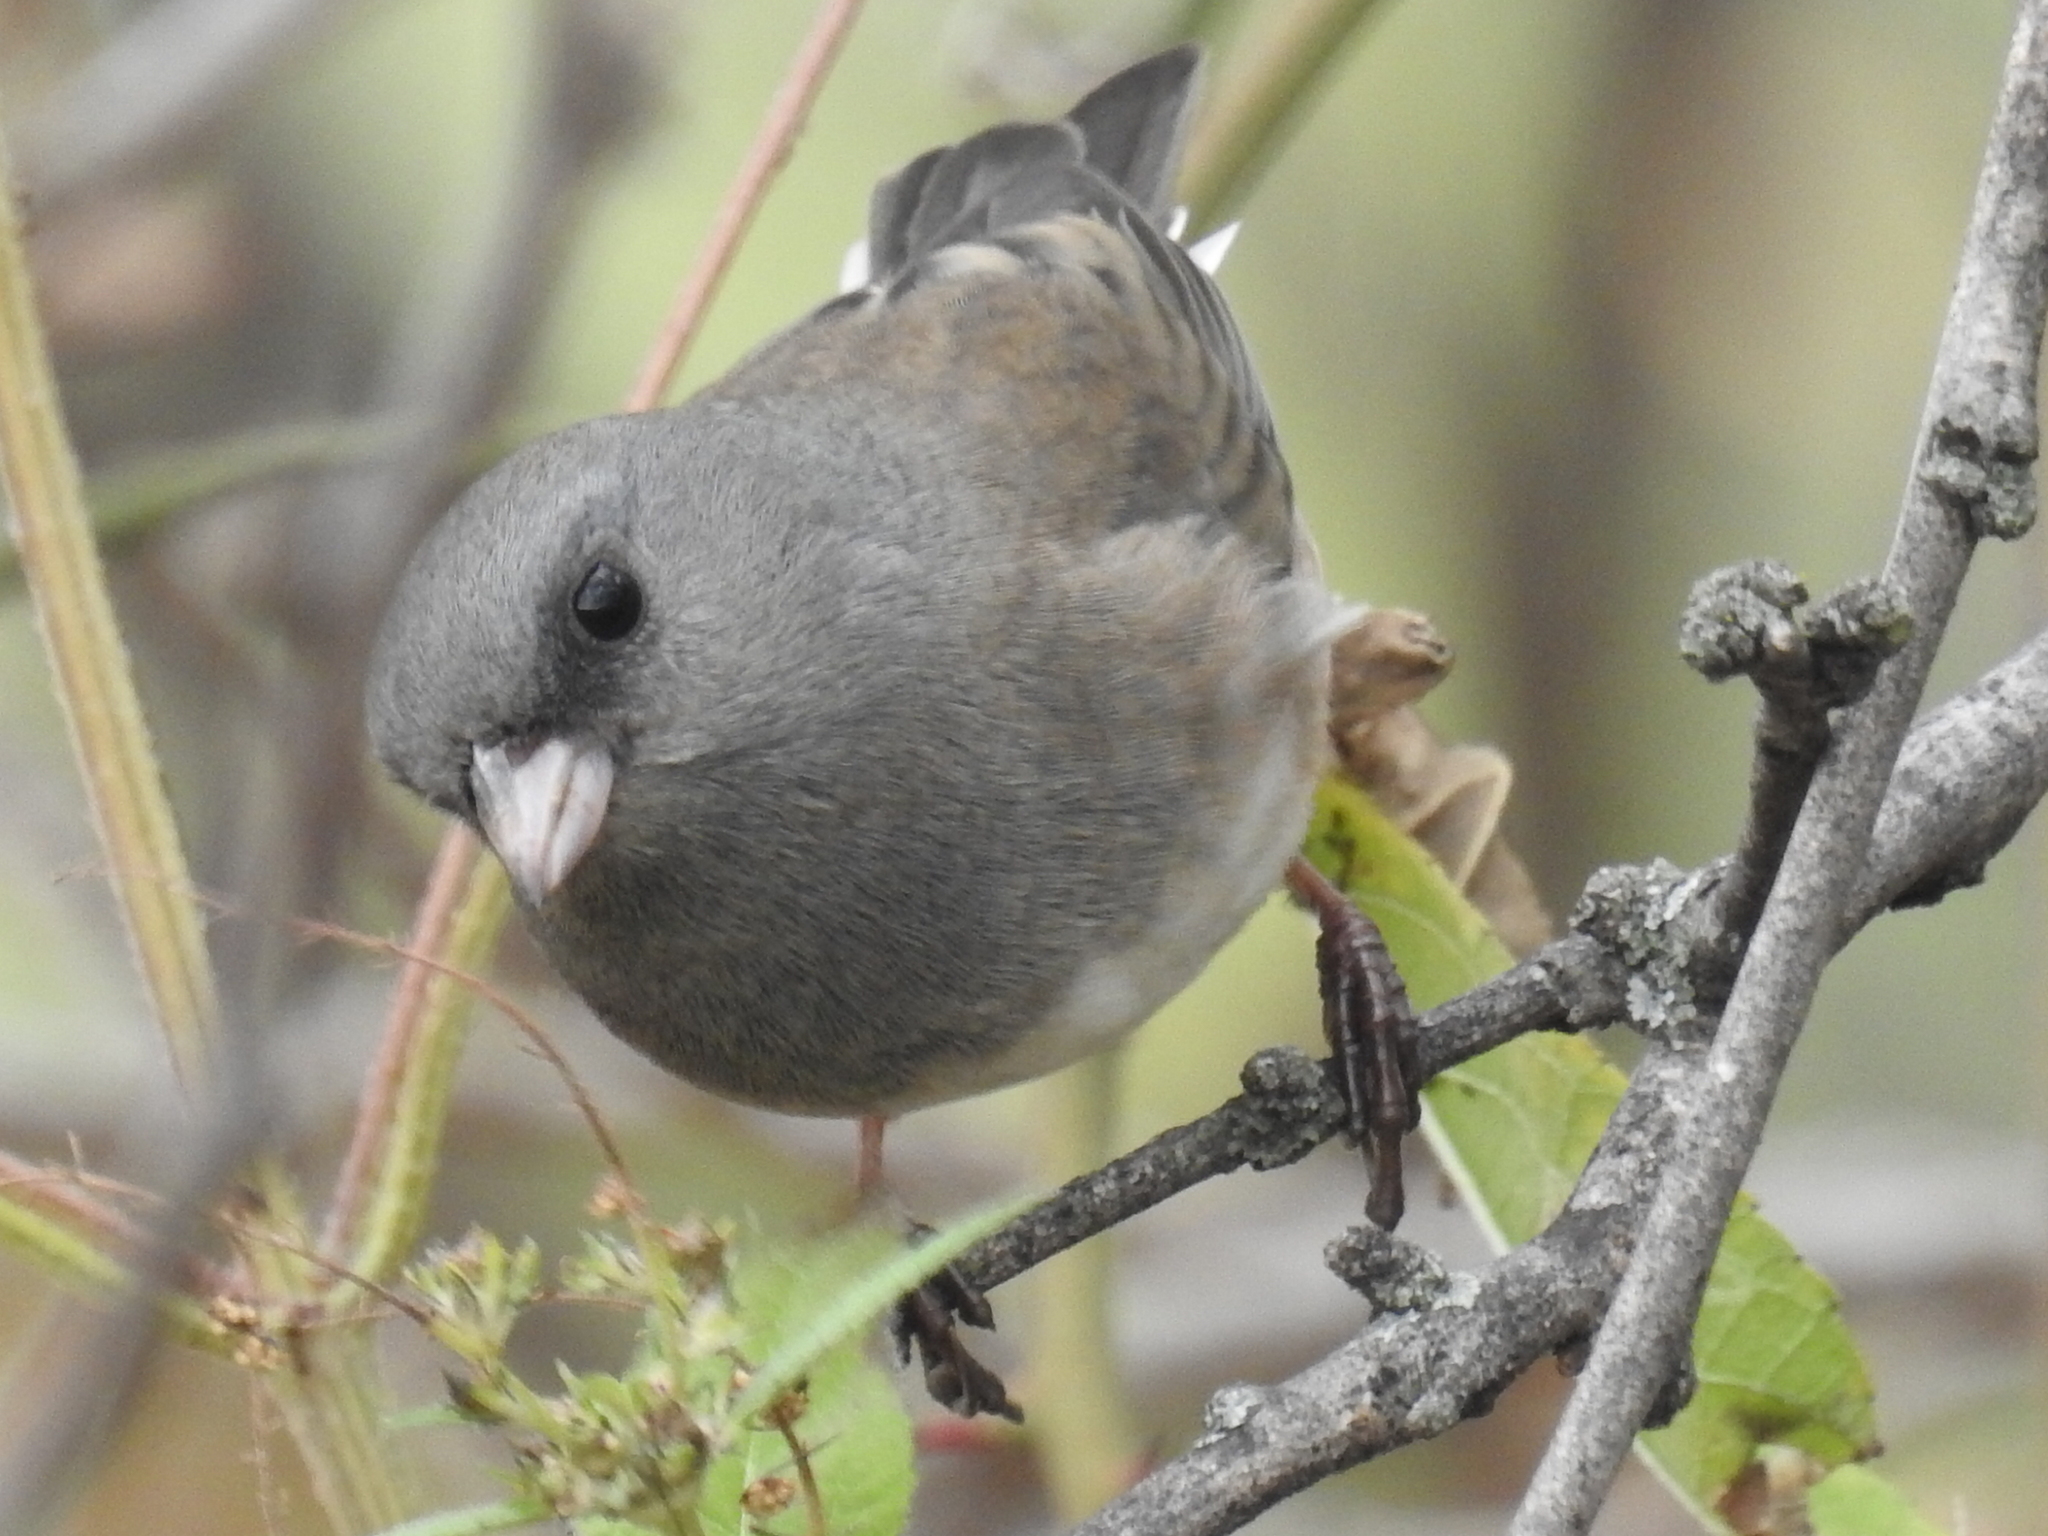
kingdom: Animalia
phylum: Chordata
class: Aves
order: Passeriformes
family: Passerellidae
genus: Junco
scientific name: Junco hyemalis
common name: Dark-eyed junco
